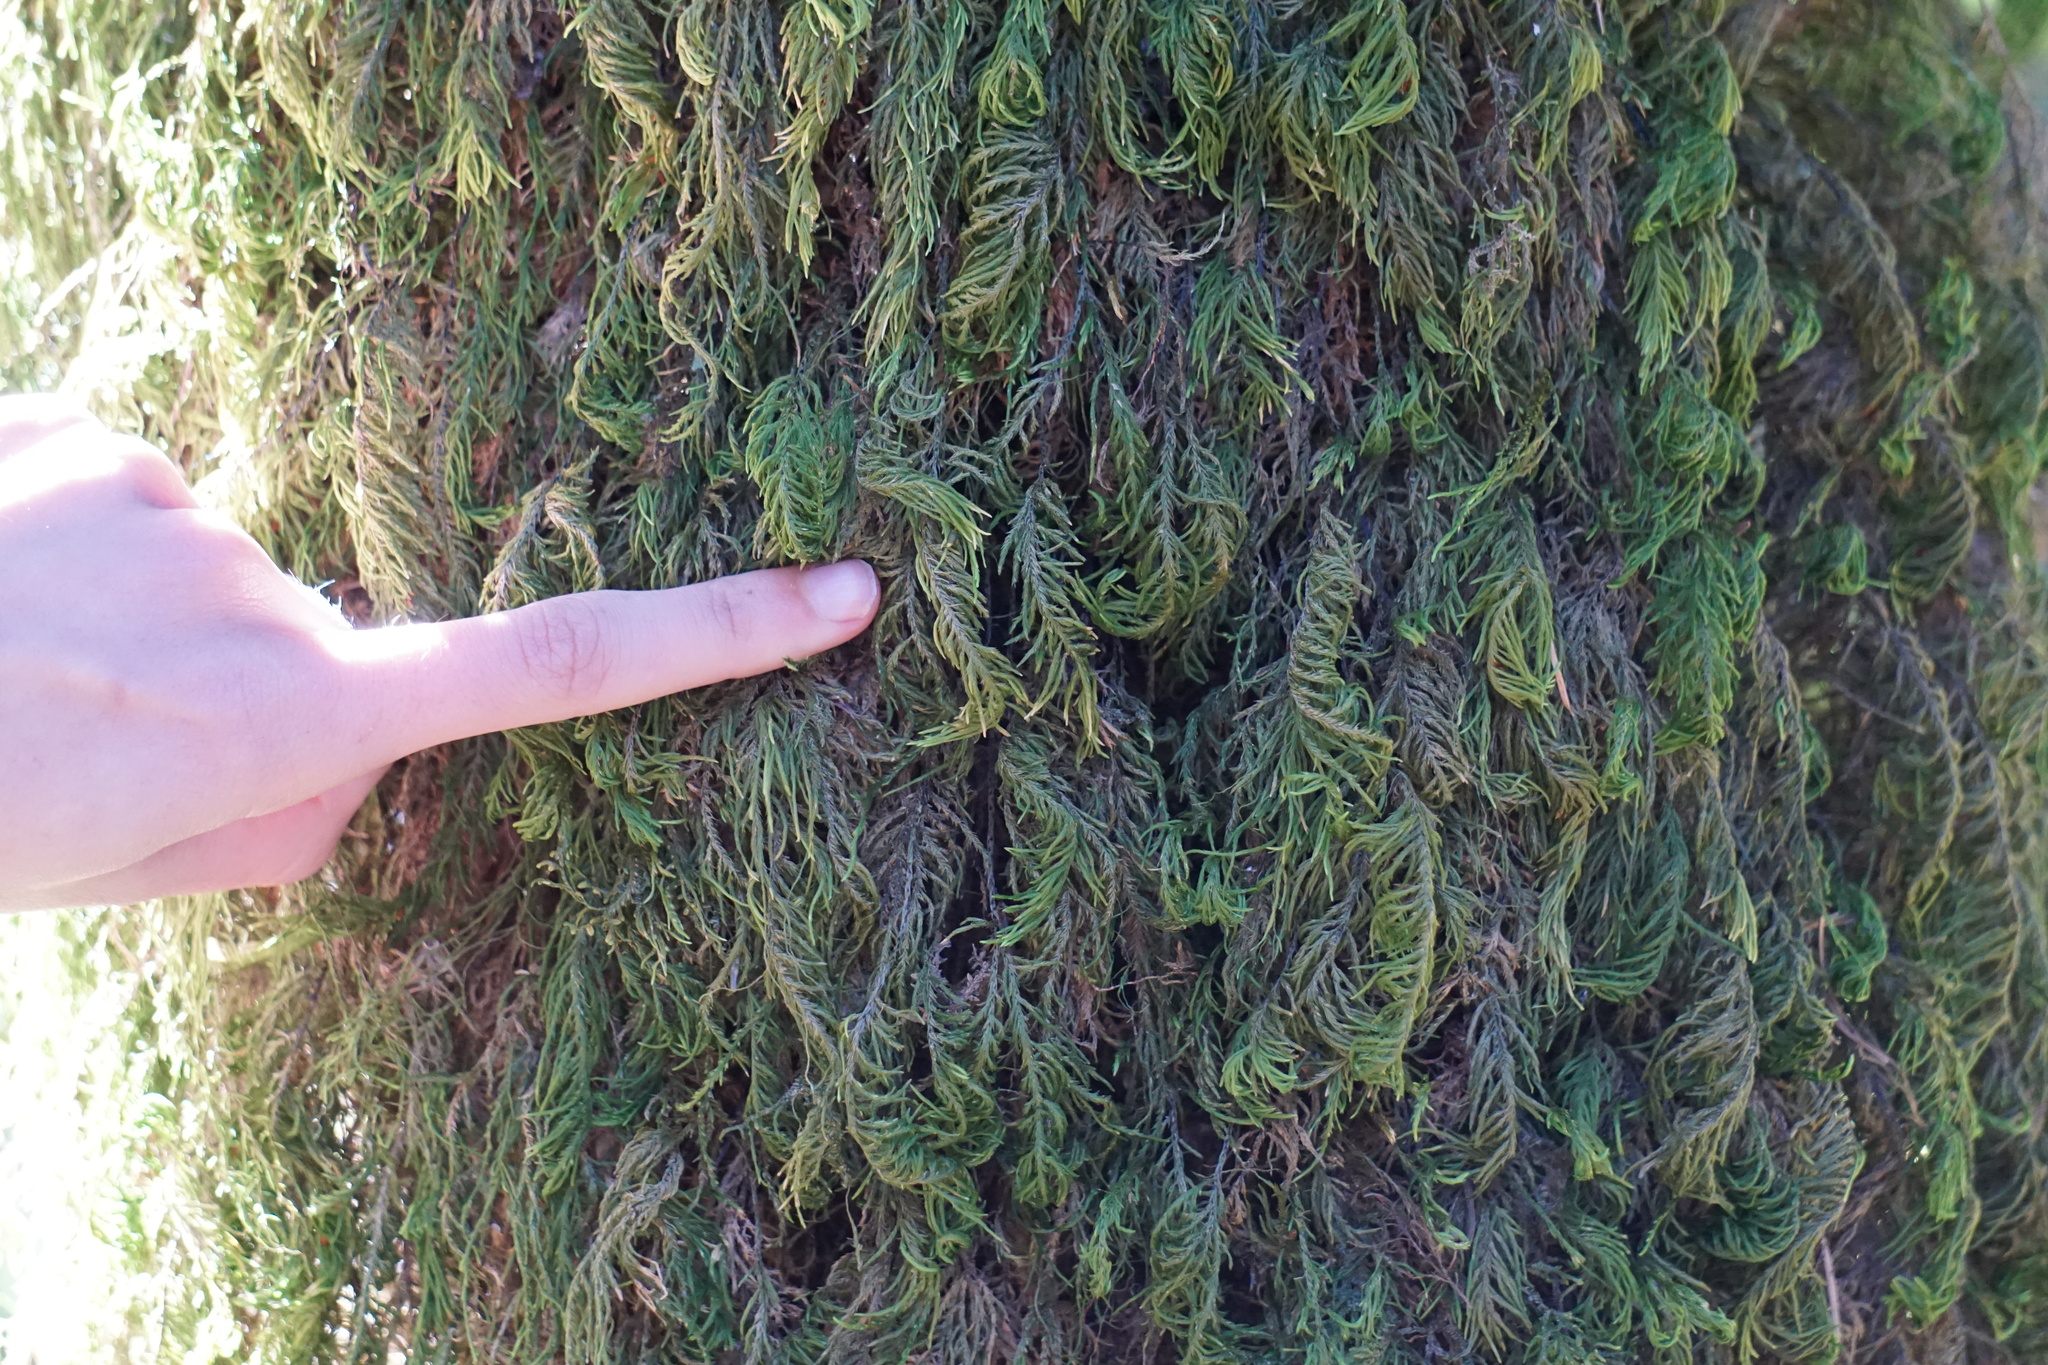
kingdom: Plantae
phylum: Bryophyta
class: Bryopsida
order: Hypnales
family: Cryphaeaceae
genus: Dendroalsia
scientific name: Dendroalsia abietina
